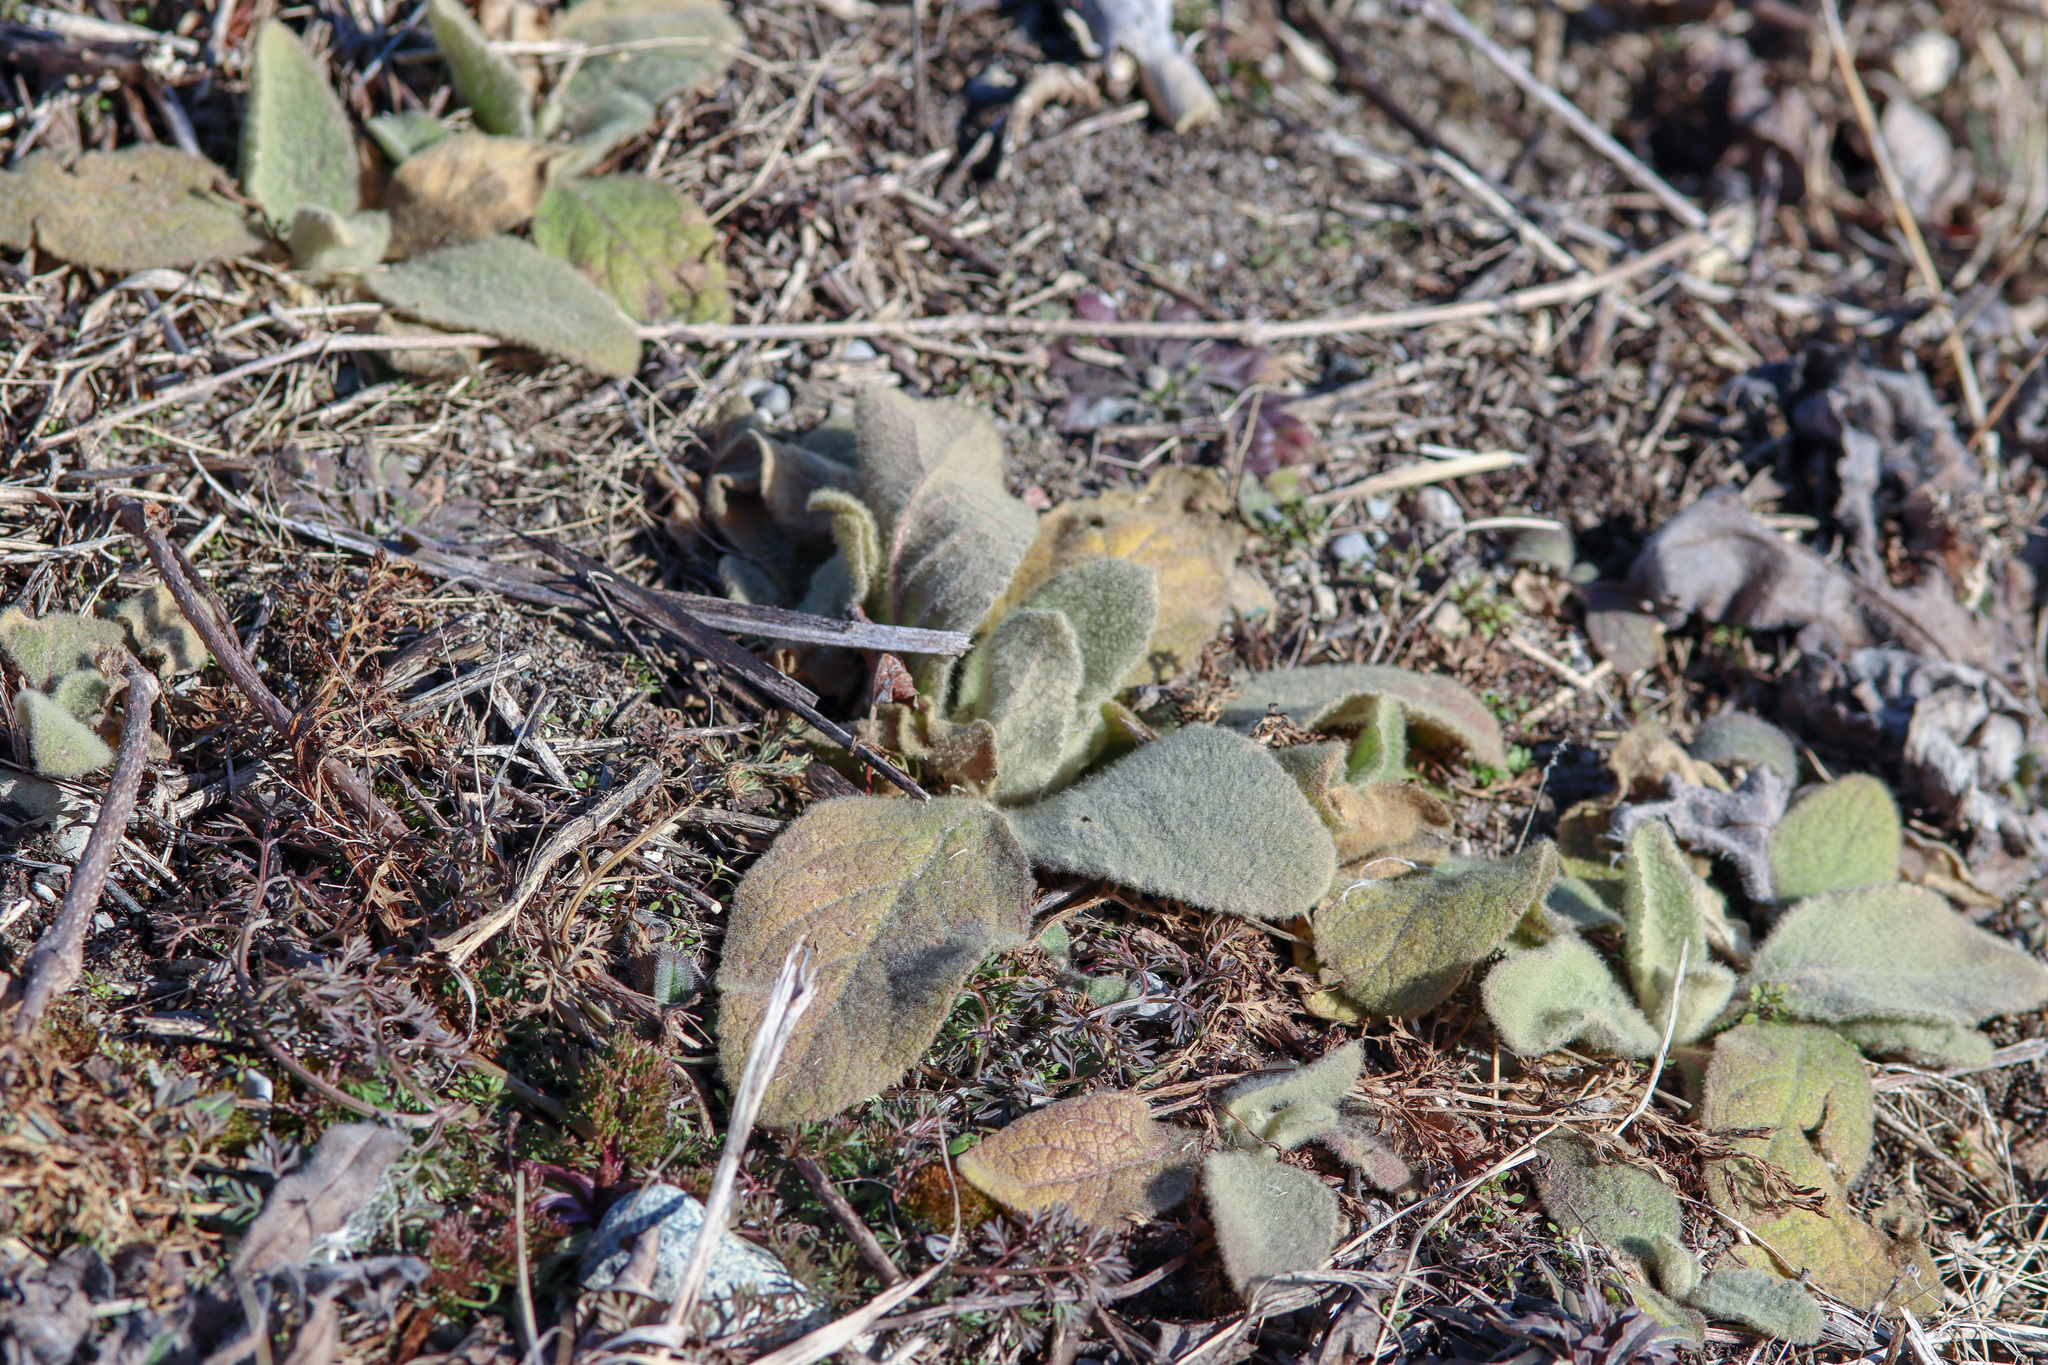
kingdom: Plantae
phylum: Tracheophyta
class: Magnoliopsida
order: Lamiales
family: Scrophulariaceae
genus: Verbascum
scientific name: Verbascum thapsus
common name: Common mullein
